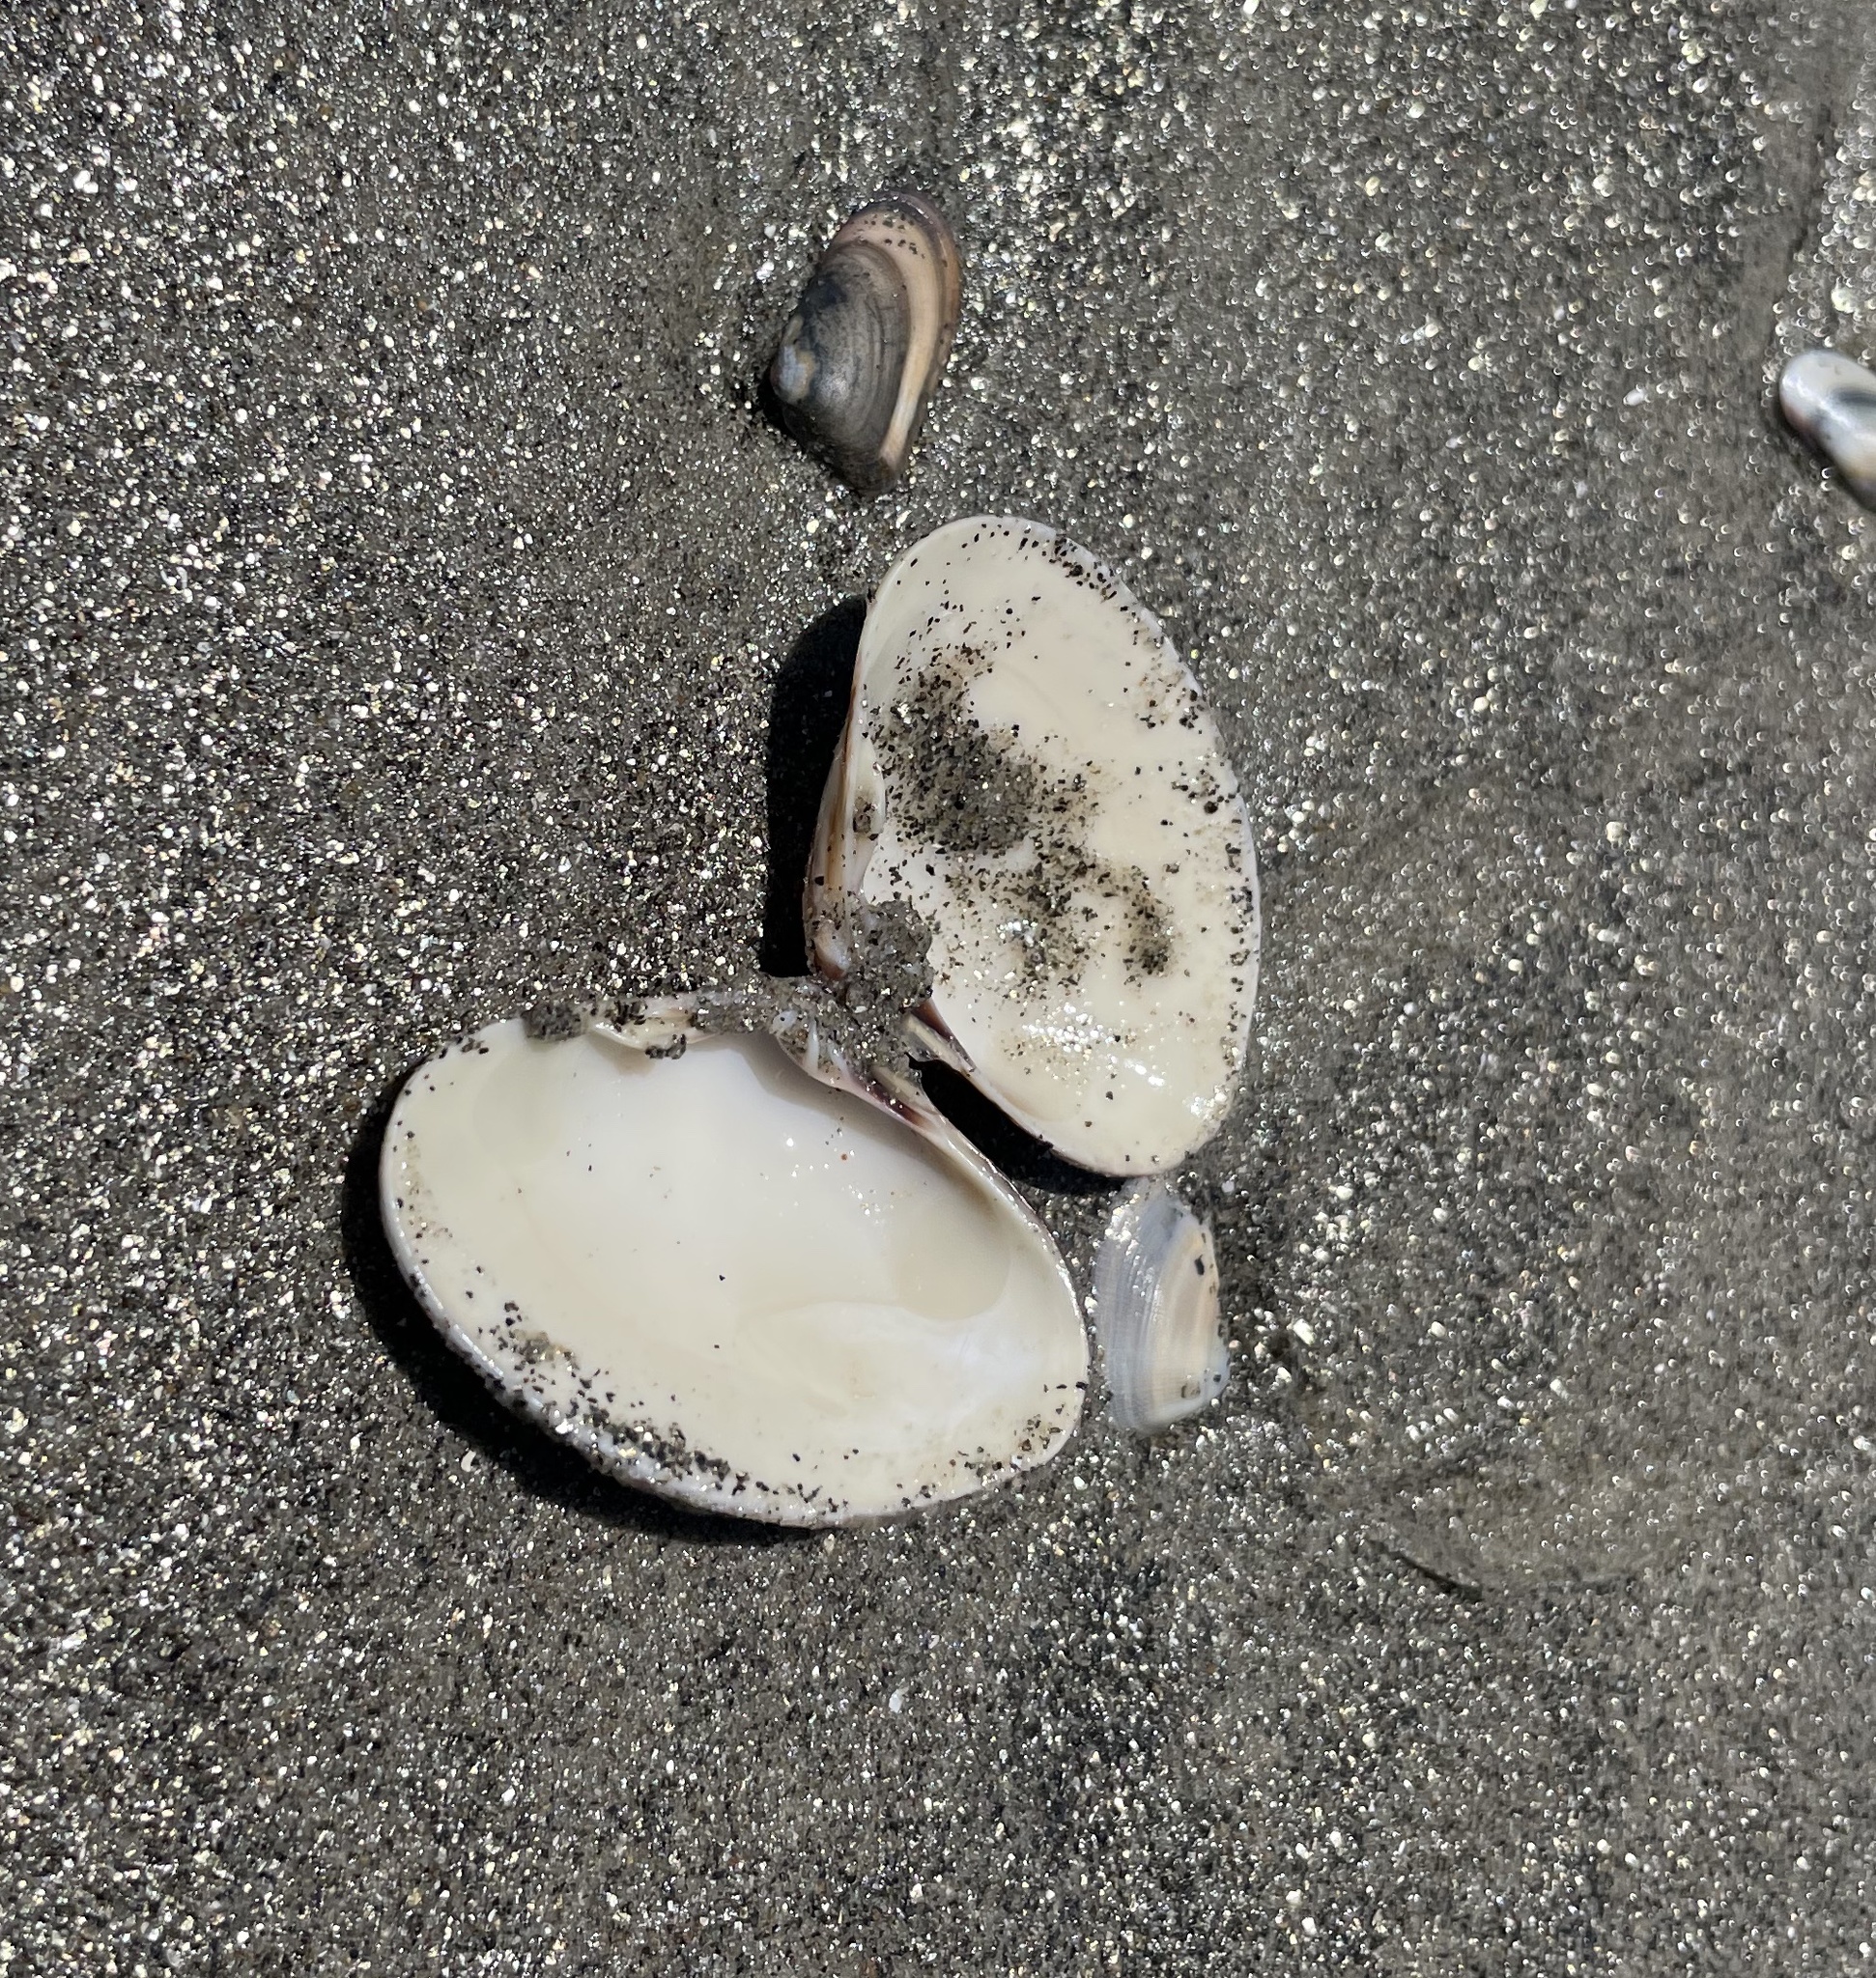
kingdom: Animalia
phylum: Mollusca
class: Bivalvia
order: Venerida
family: Veneridae
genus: Tivela
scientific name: Tivela stultorum
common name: Pismo clam
